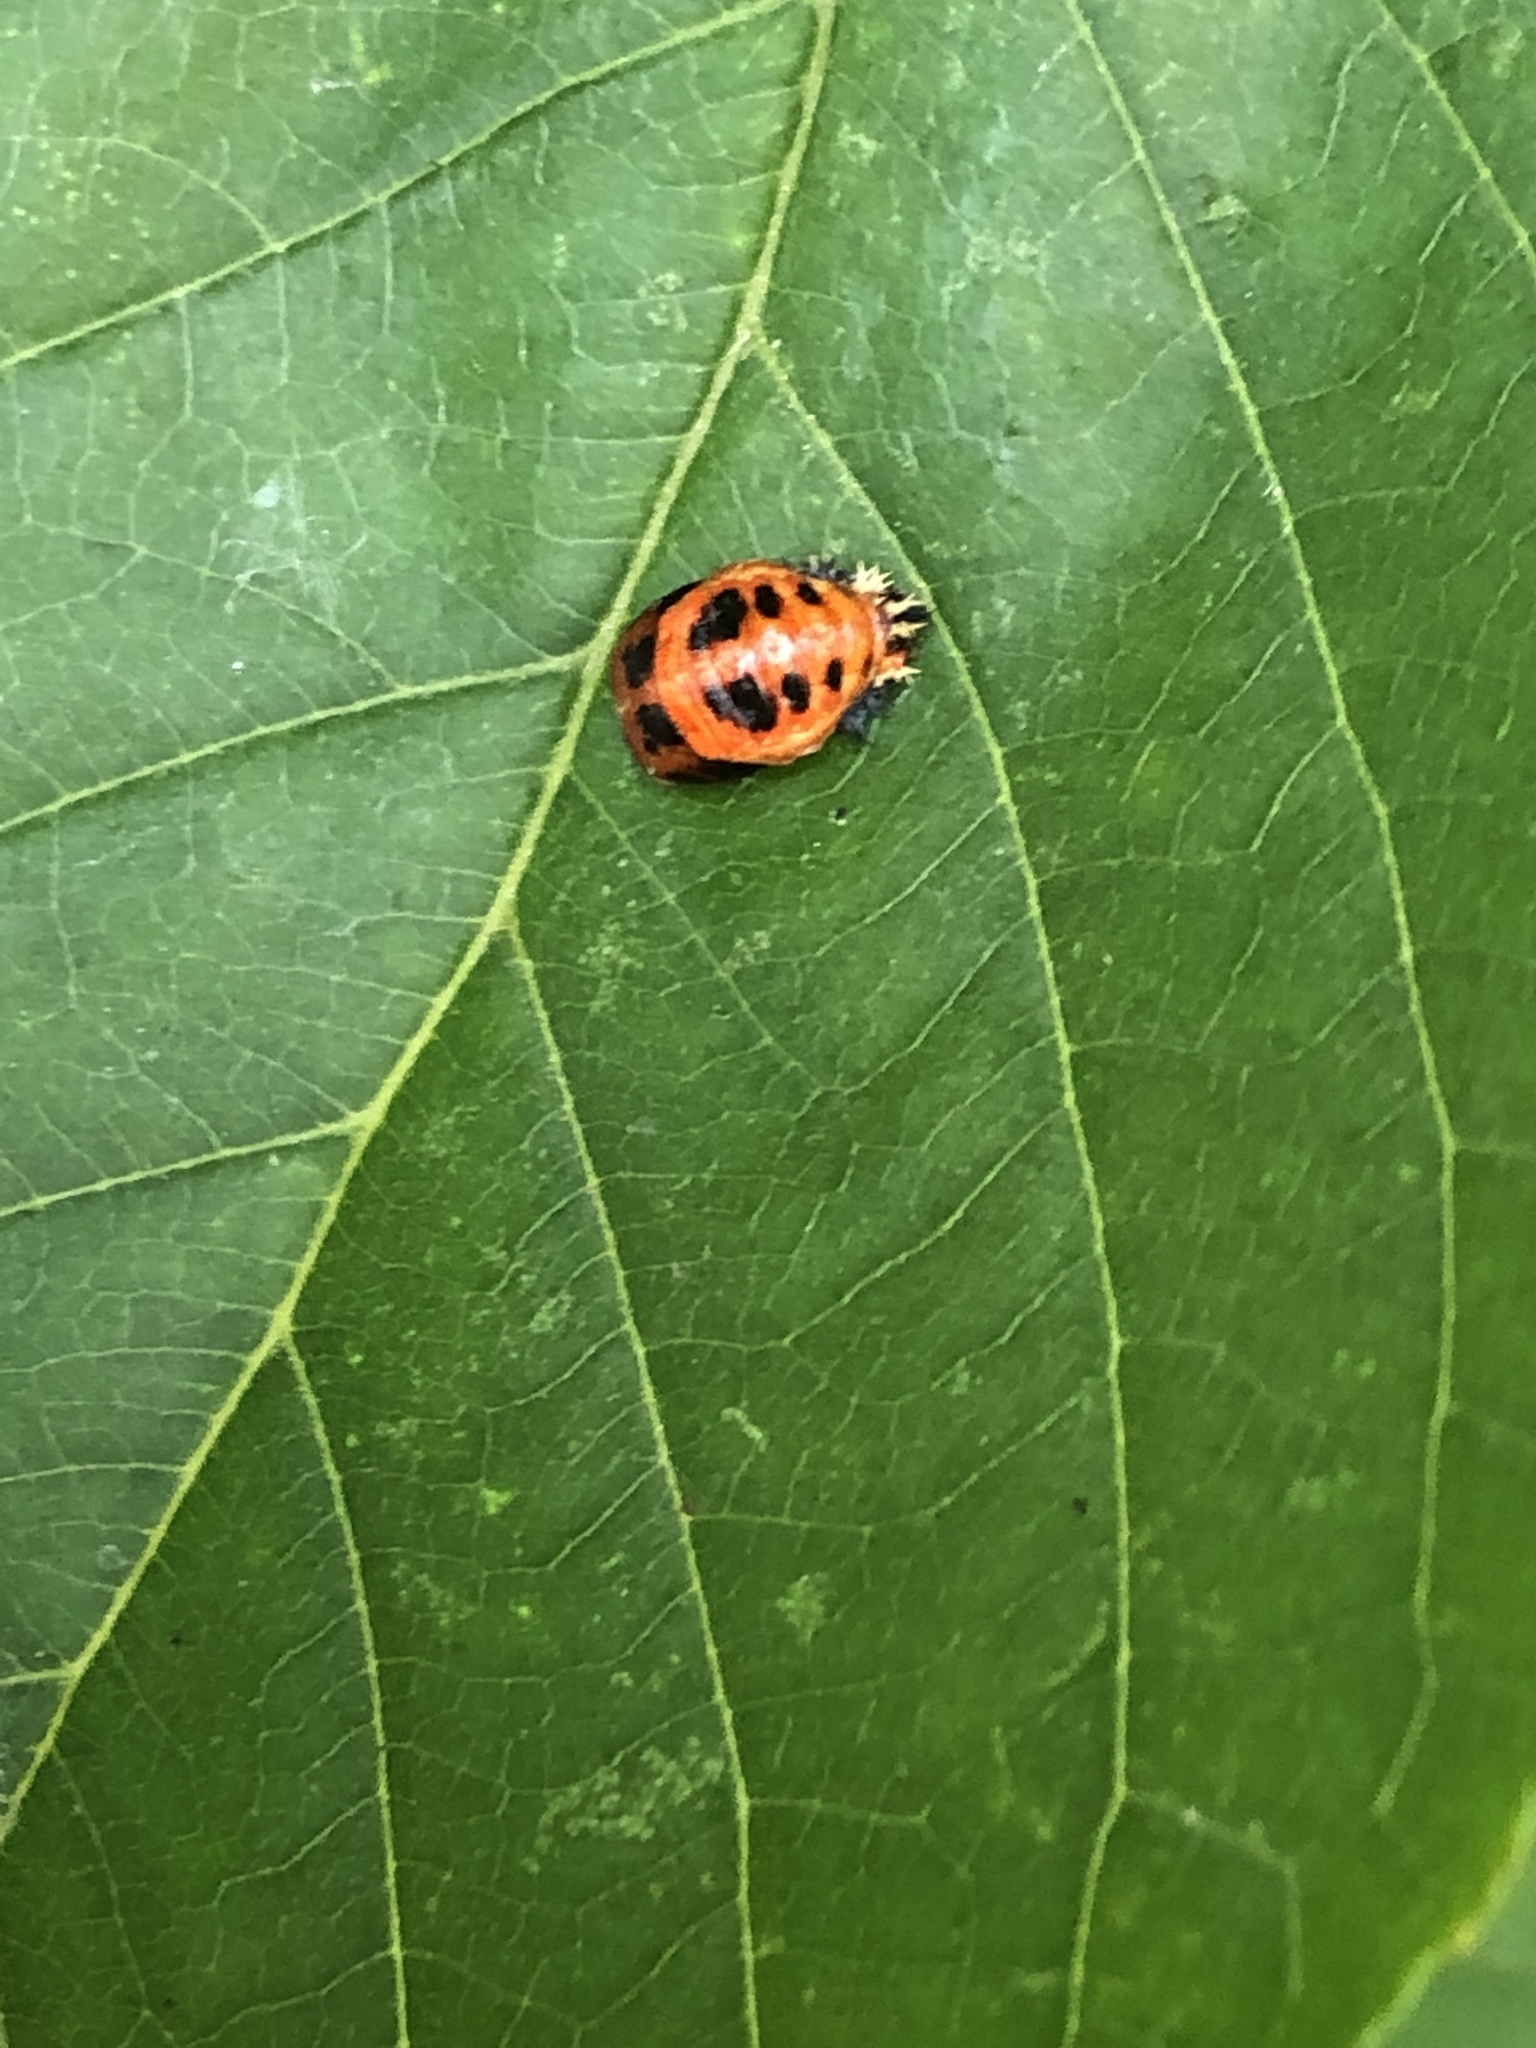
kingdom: Animalia
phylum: Arthropoda
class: Insecta
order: Coleoptera
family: Coccinellidae
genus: Harmonia
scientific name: Harmonia axyridis
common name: Harlequin ladybird
